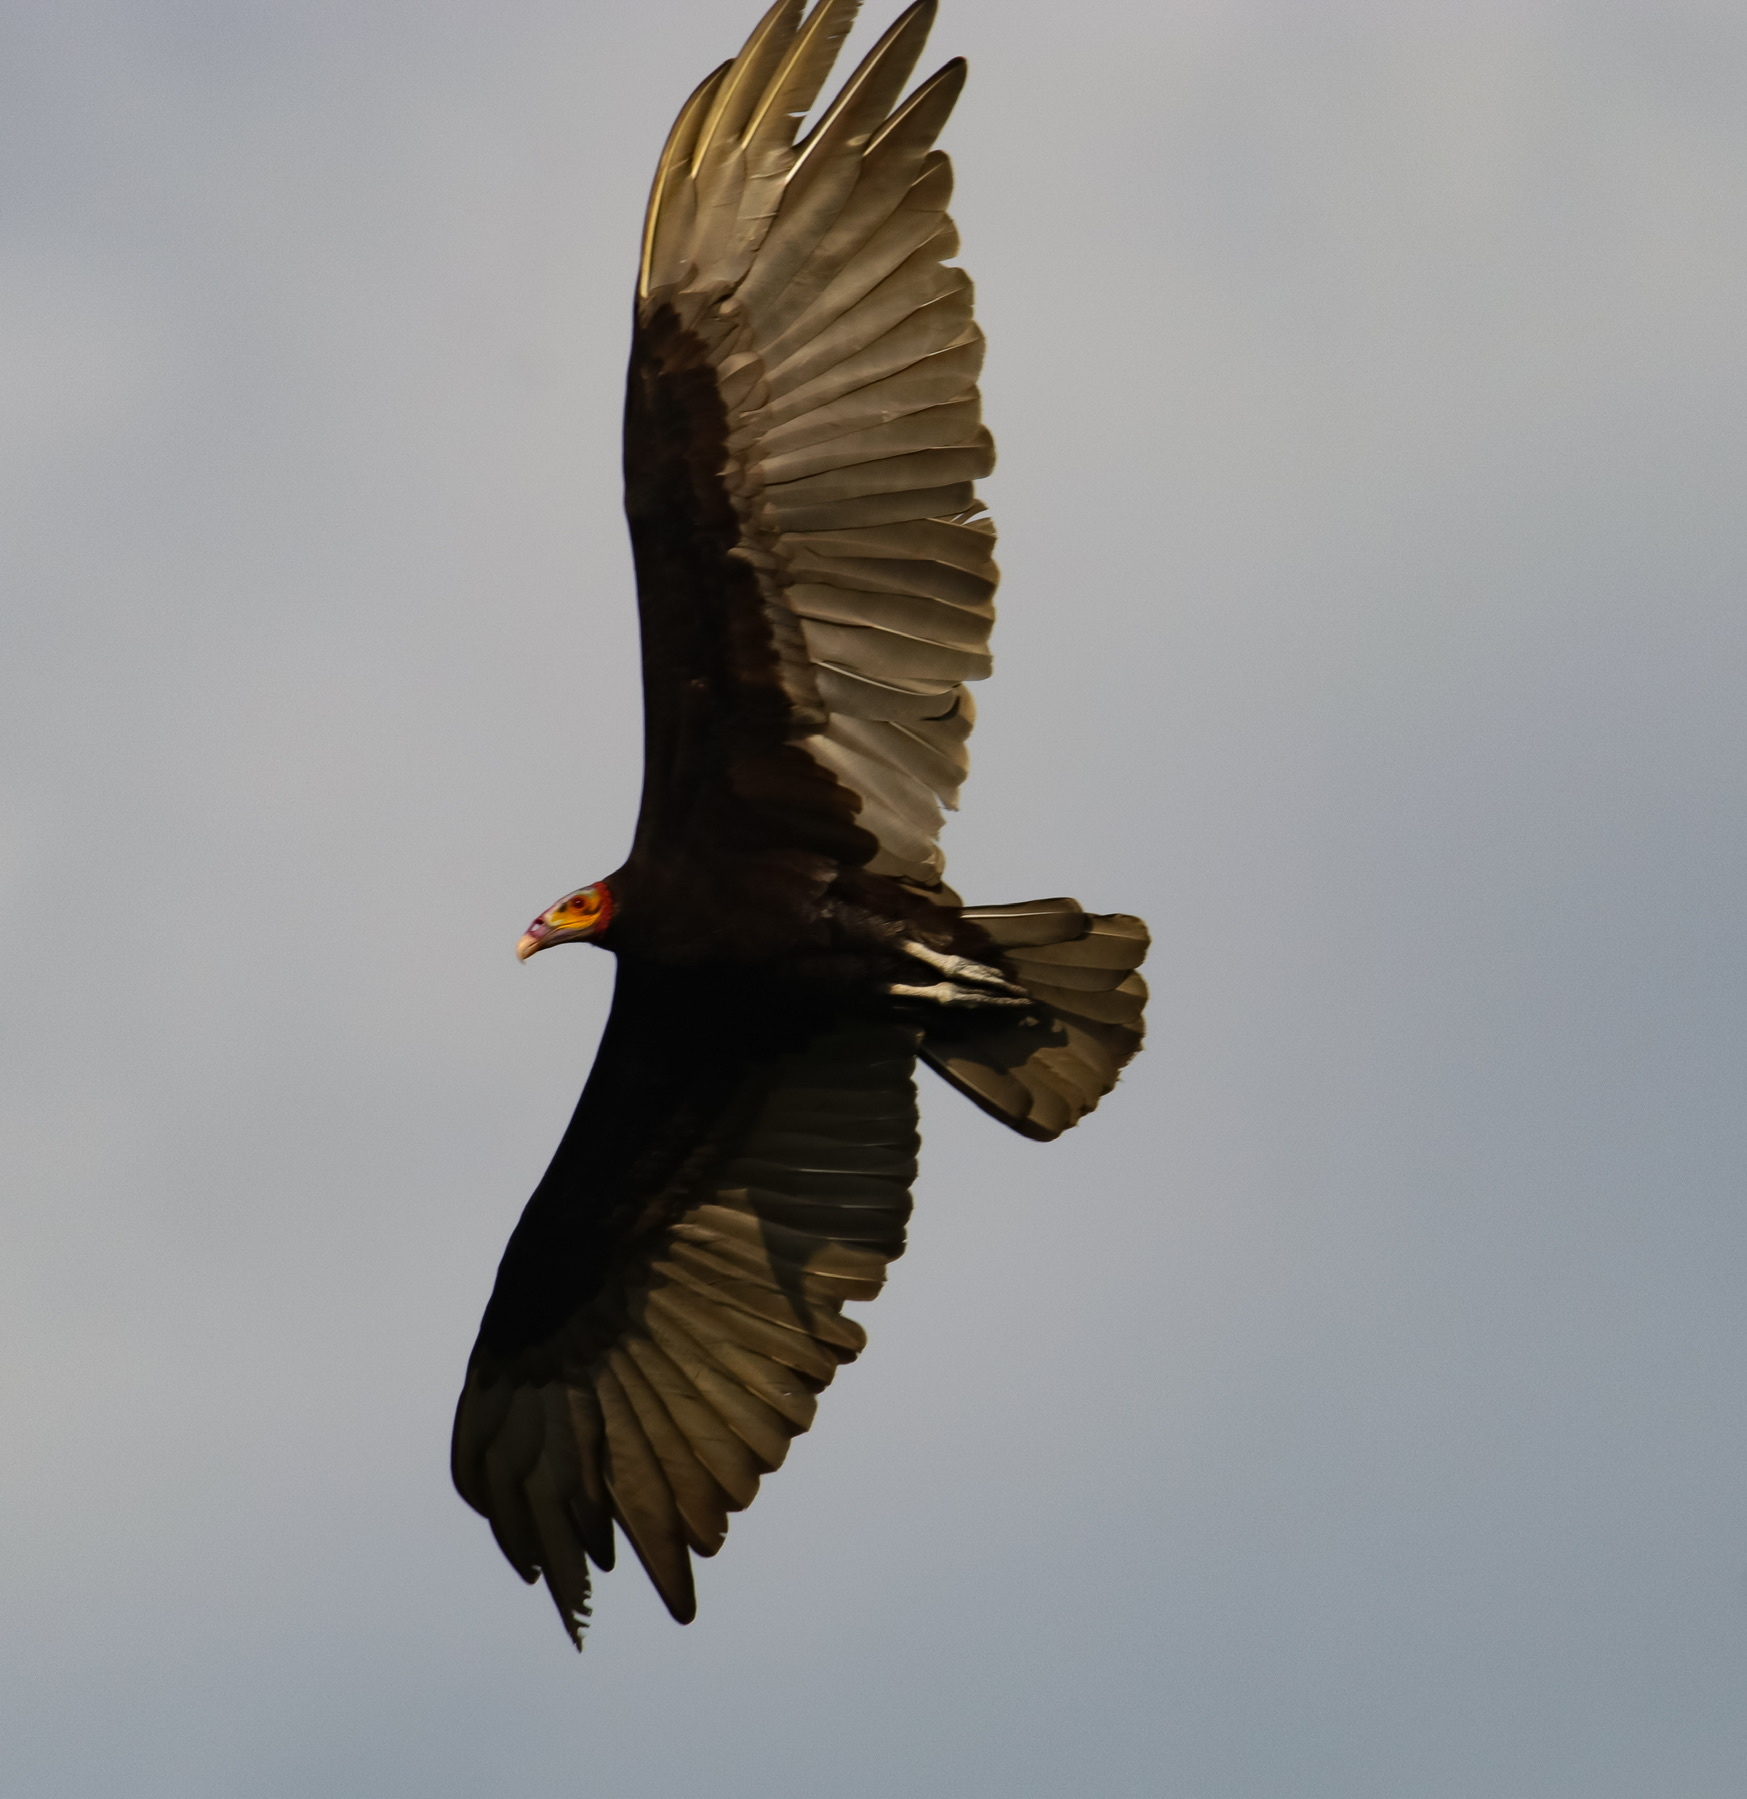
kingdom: Animalia
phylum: Chordata
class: Aves
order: Accipitriformes
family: Cathartidae
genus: Cathartes
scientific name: Cathartes burrovianus
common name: Lesser yellow-headed vulture
